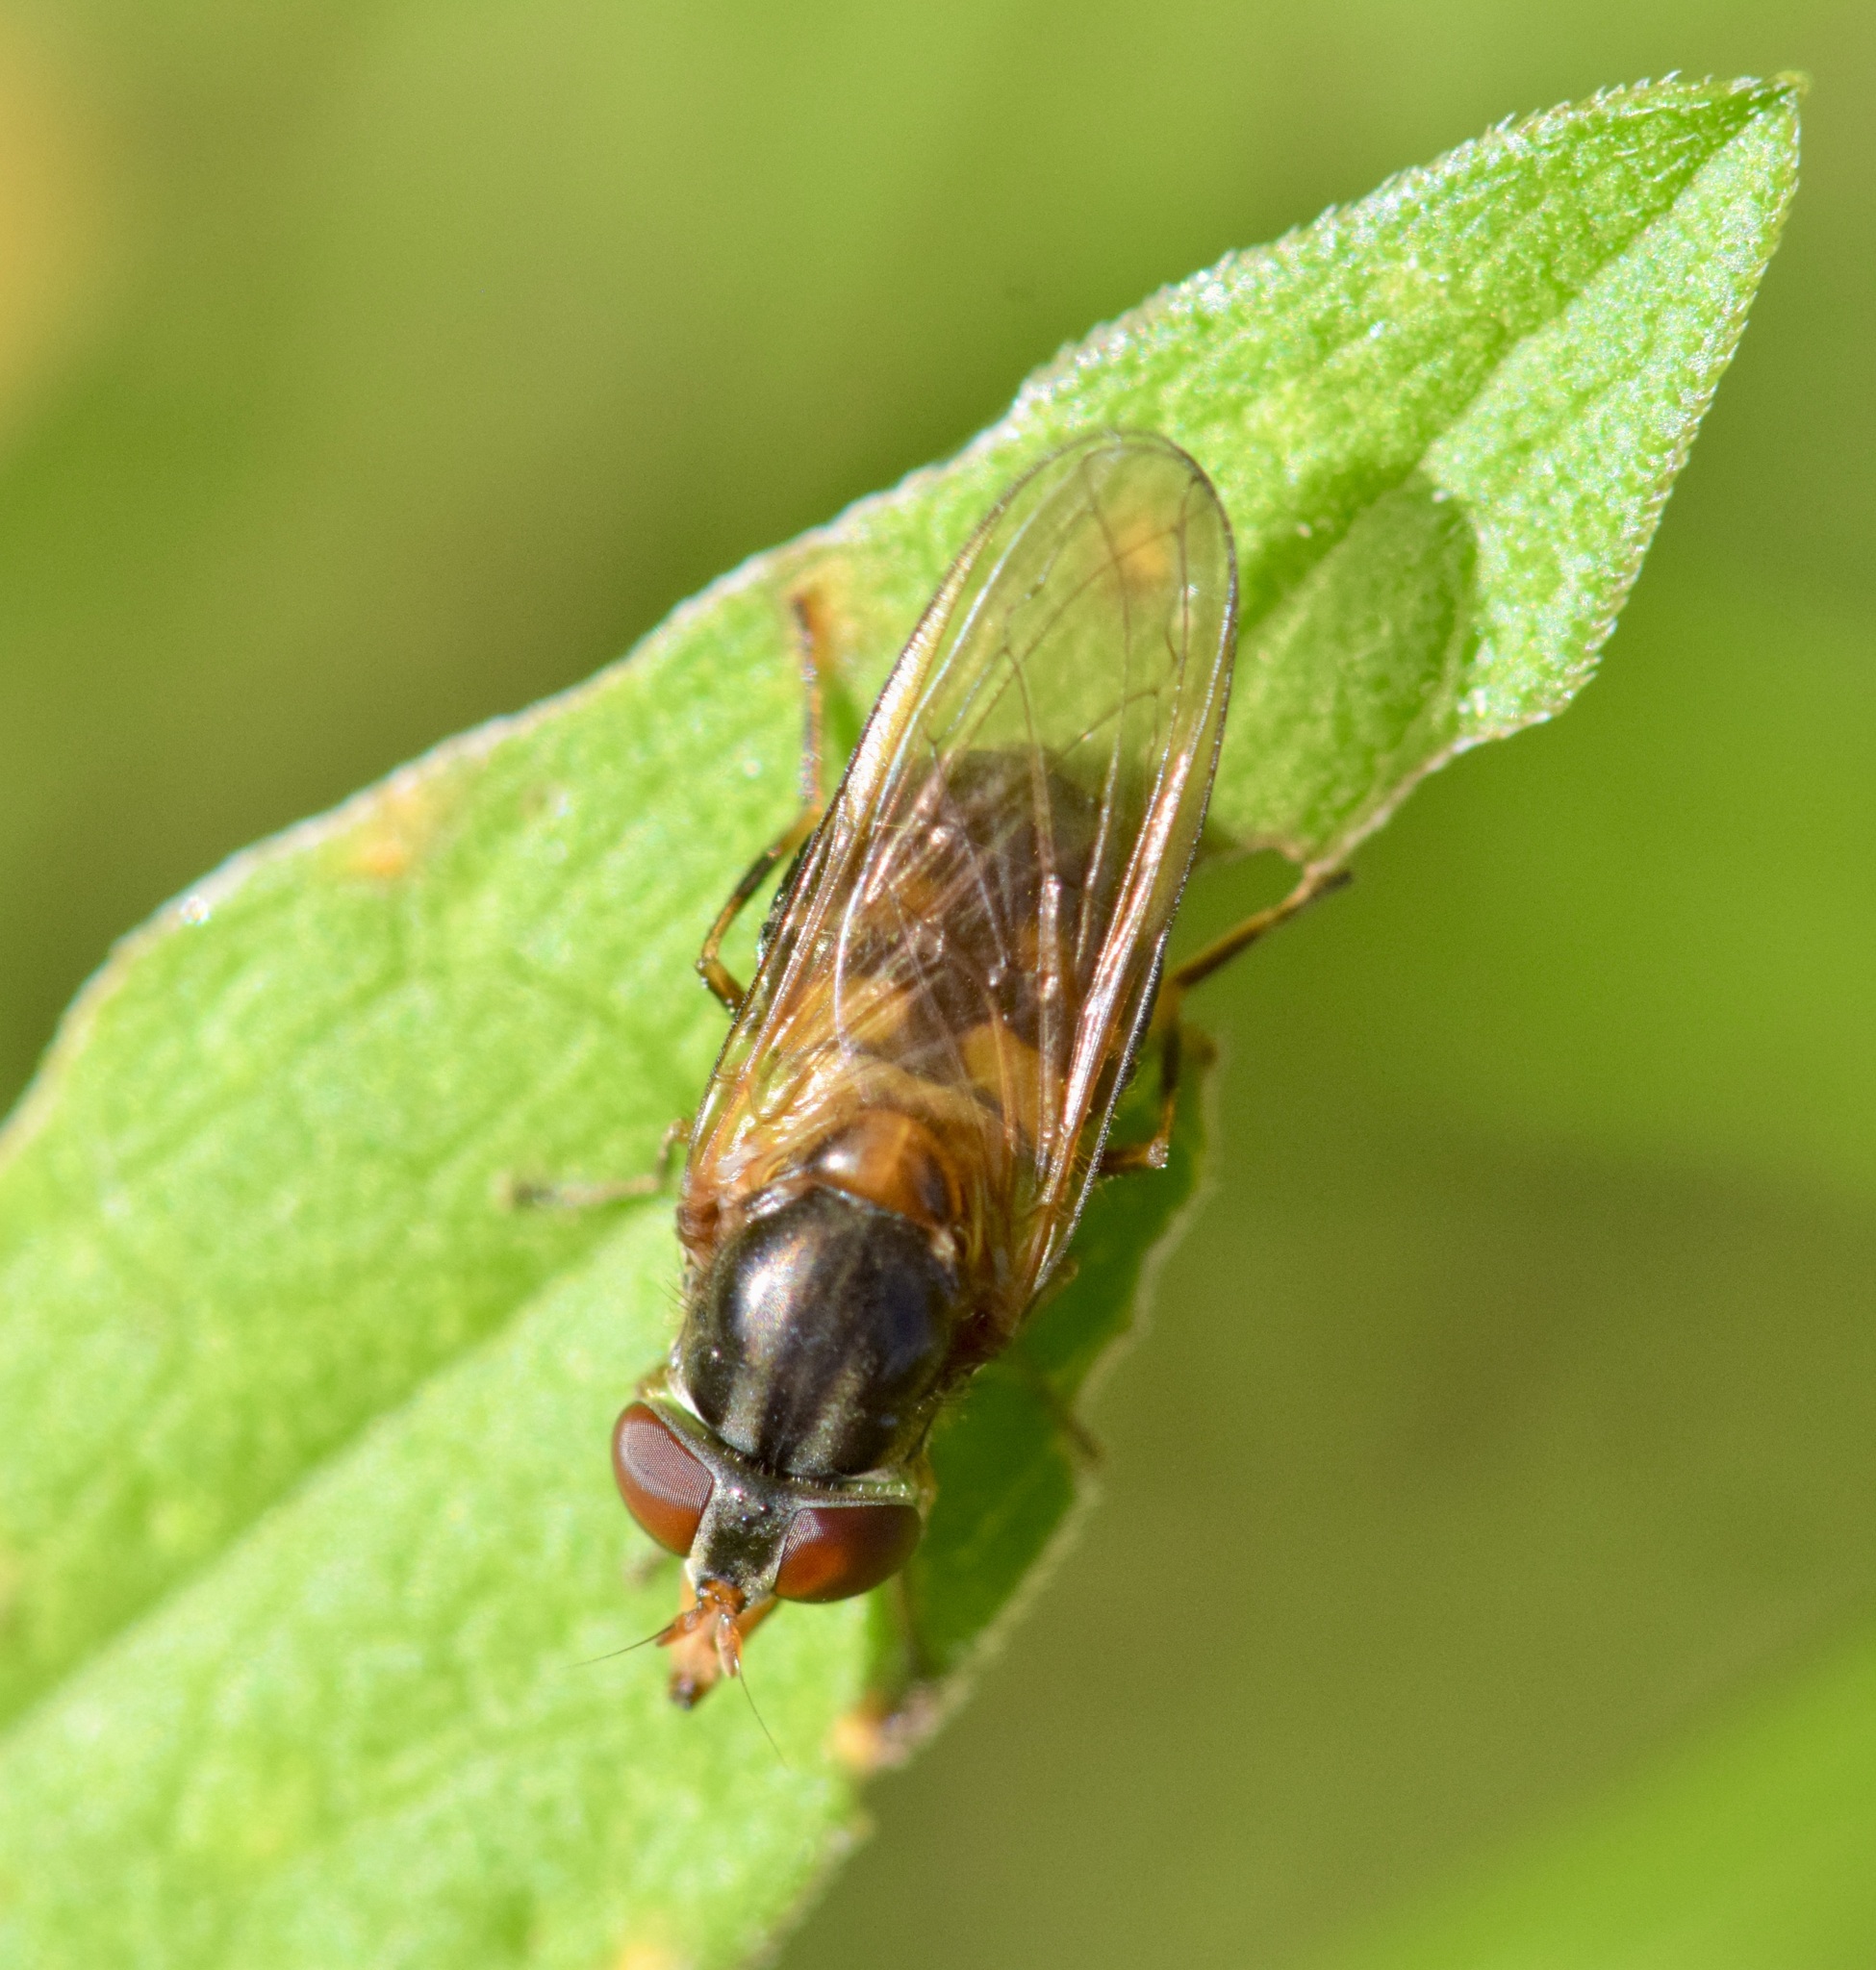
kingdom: Animalia
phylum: Arthropoda
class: Insecta
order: Diptera
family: Syrphidae
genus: Rhingia
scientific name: Rhingia nasica
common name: American snout fly
